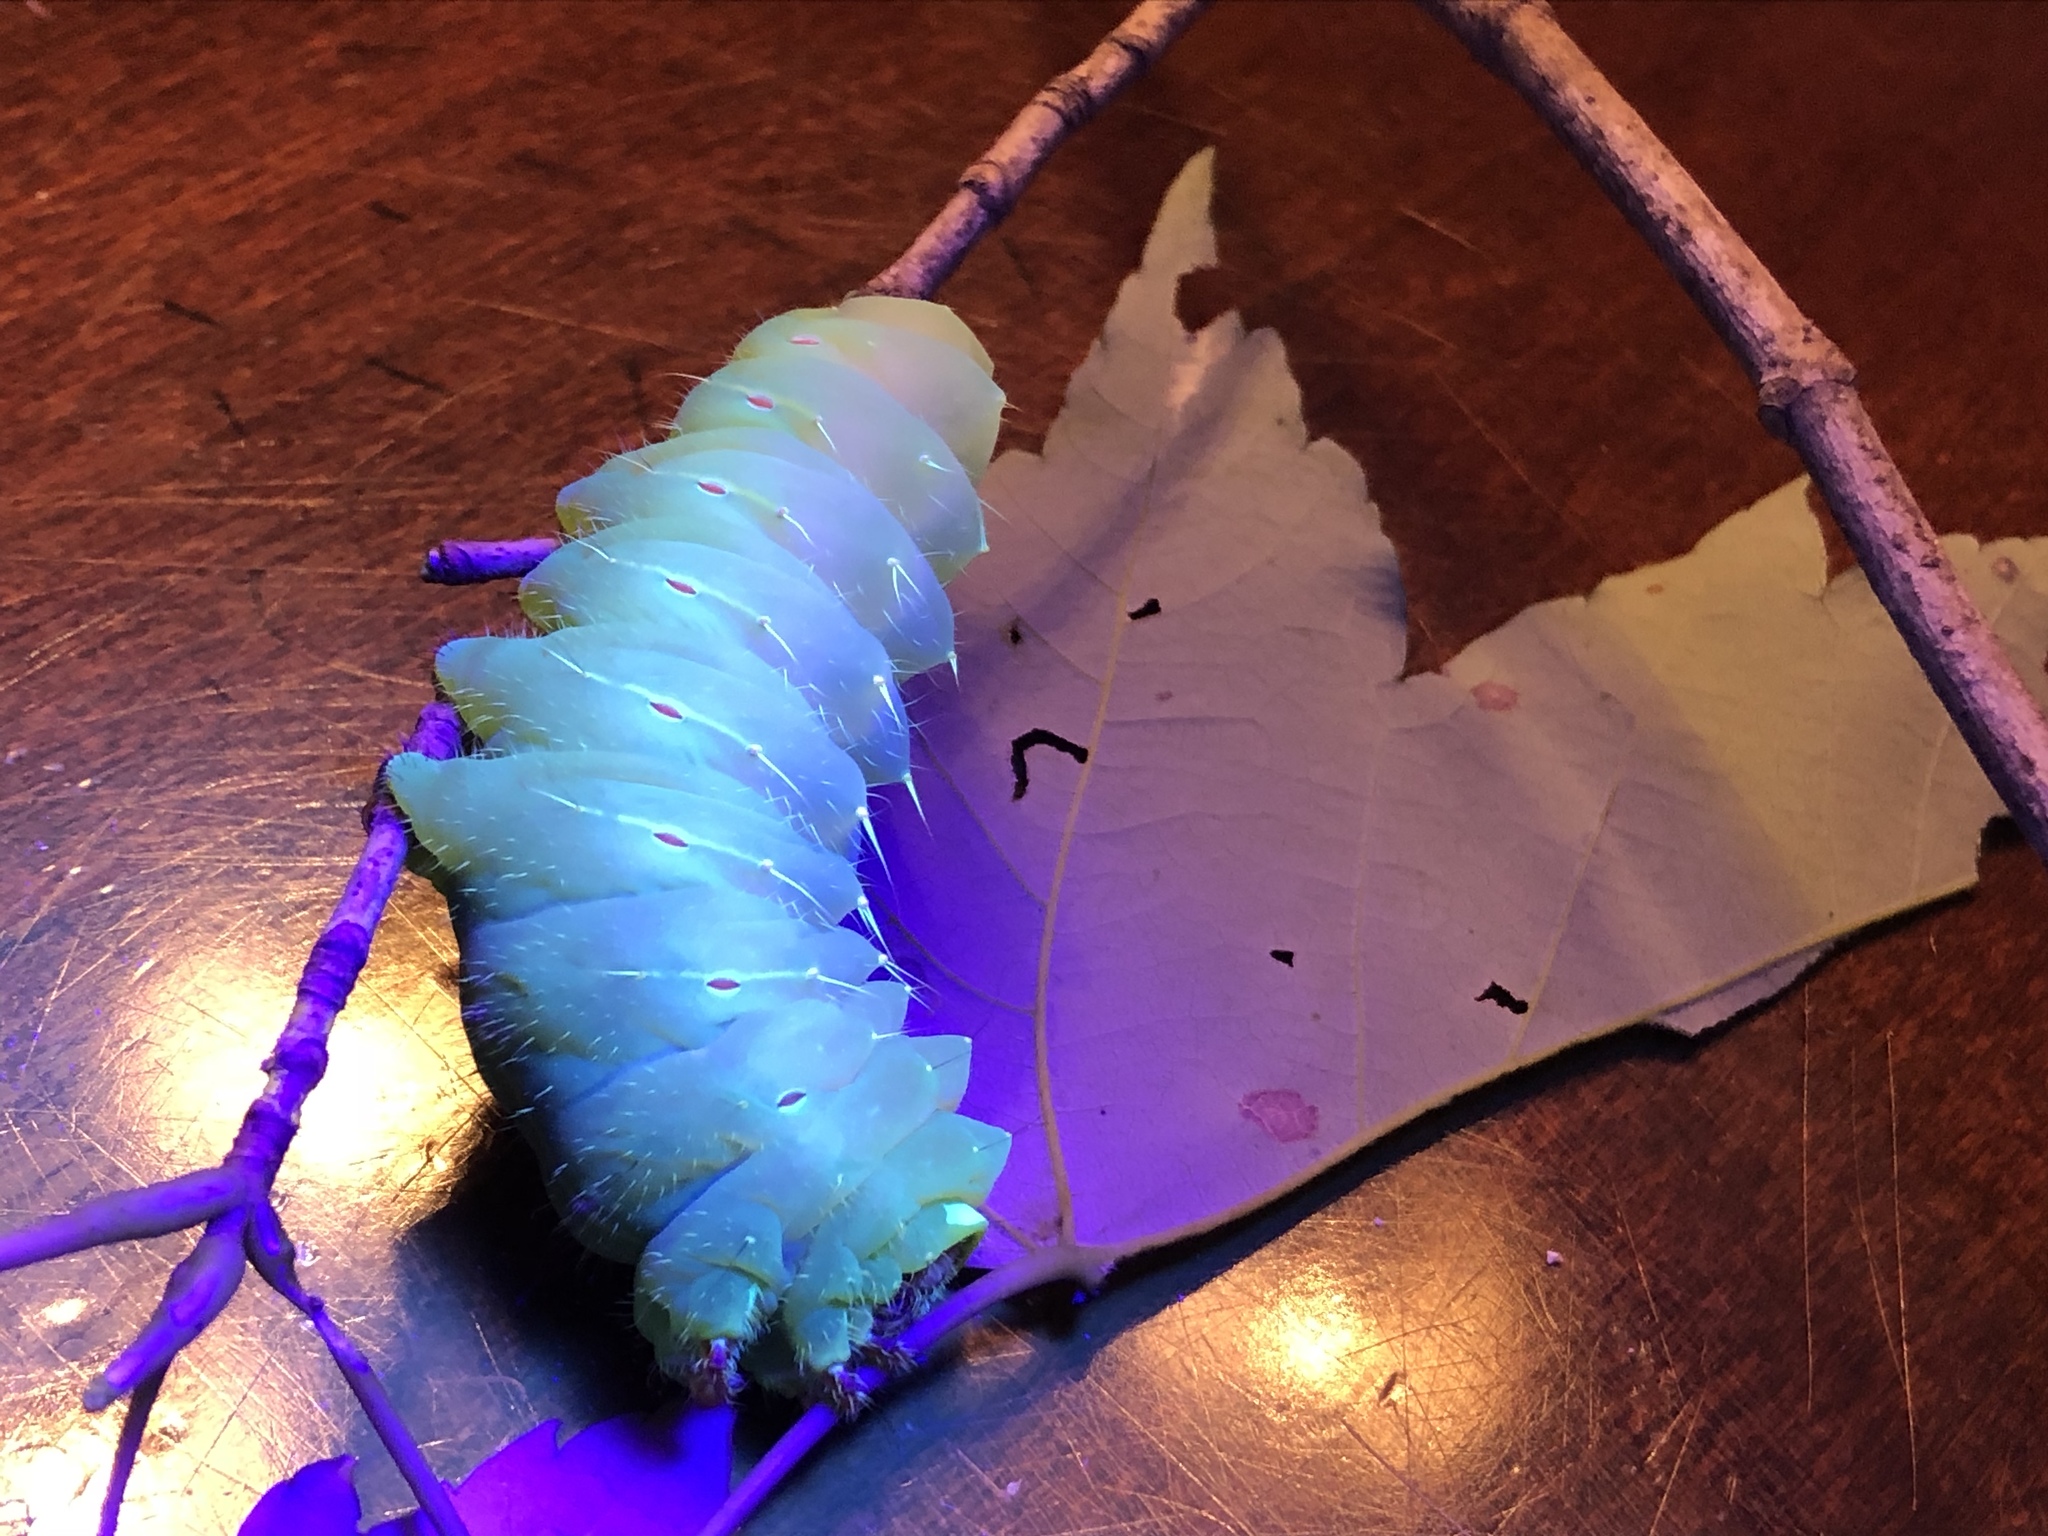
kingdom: Animalia
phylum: Arthropoda
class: Insecta
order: Lepidoptera
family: Saturniidae
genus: Antheraea
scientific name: Antheraea polyphemus
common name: Polyphemus moth
